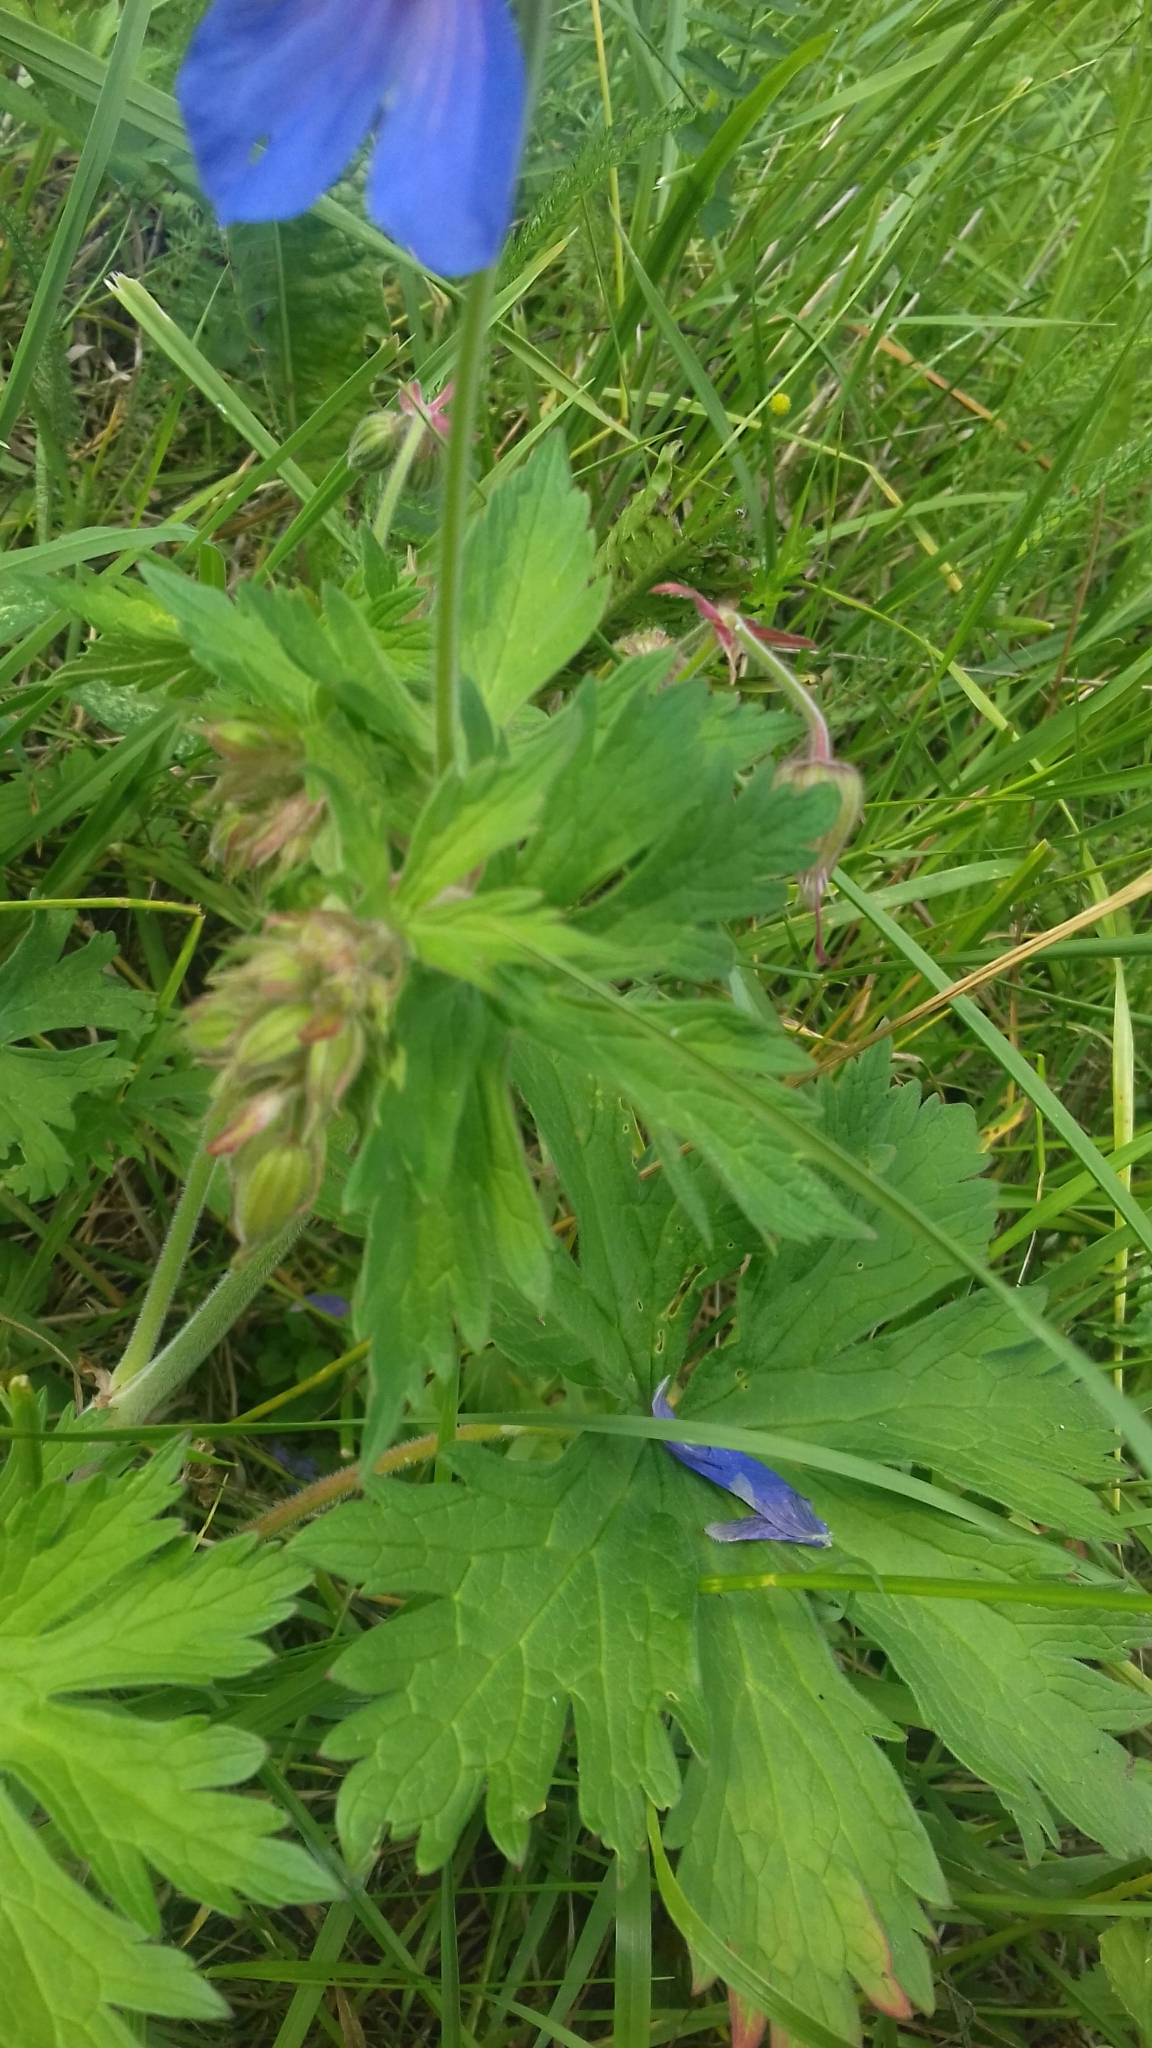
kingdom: Plantae
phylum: Tracheophyta
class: Magnoliopsida
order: Geraniales
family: Geraniaceae
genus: Geranium
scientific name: Geranium pratense
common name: Meadow crane's-bill
